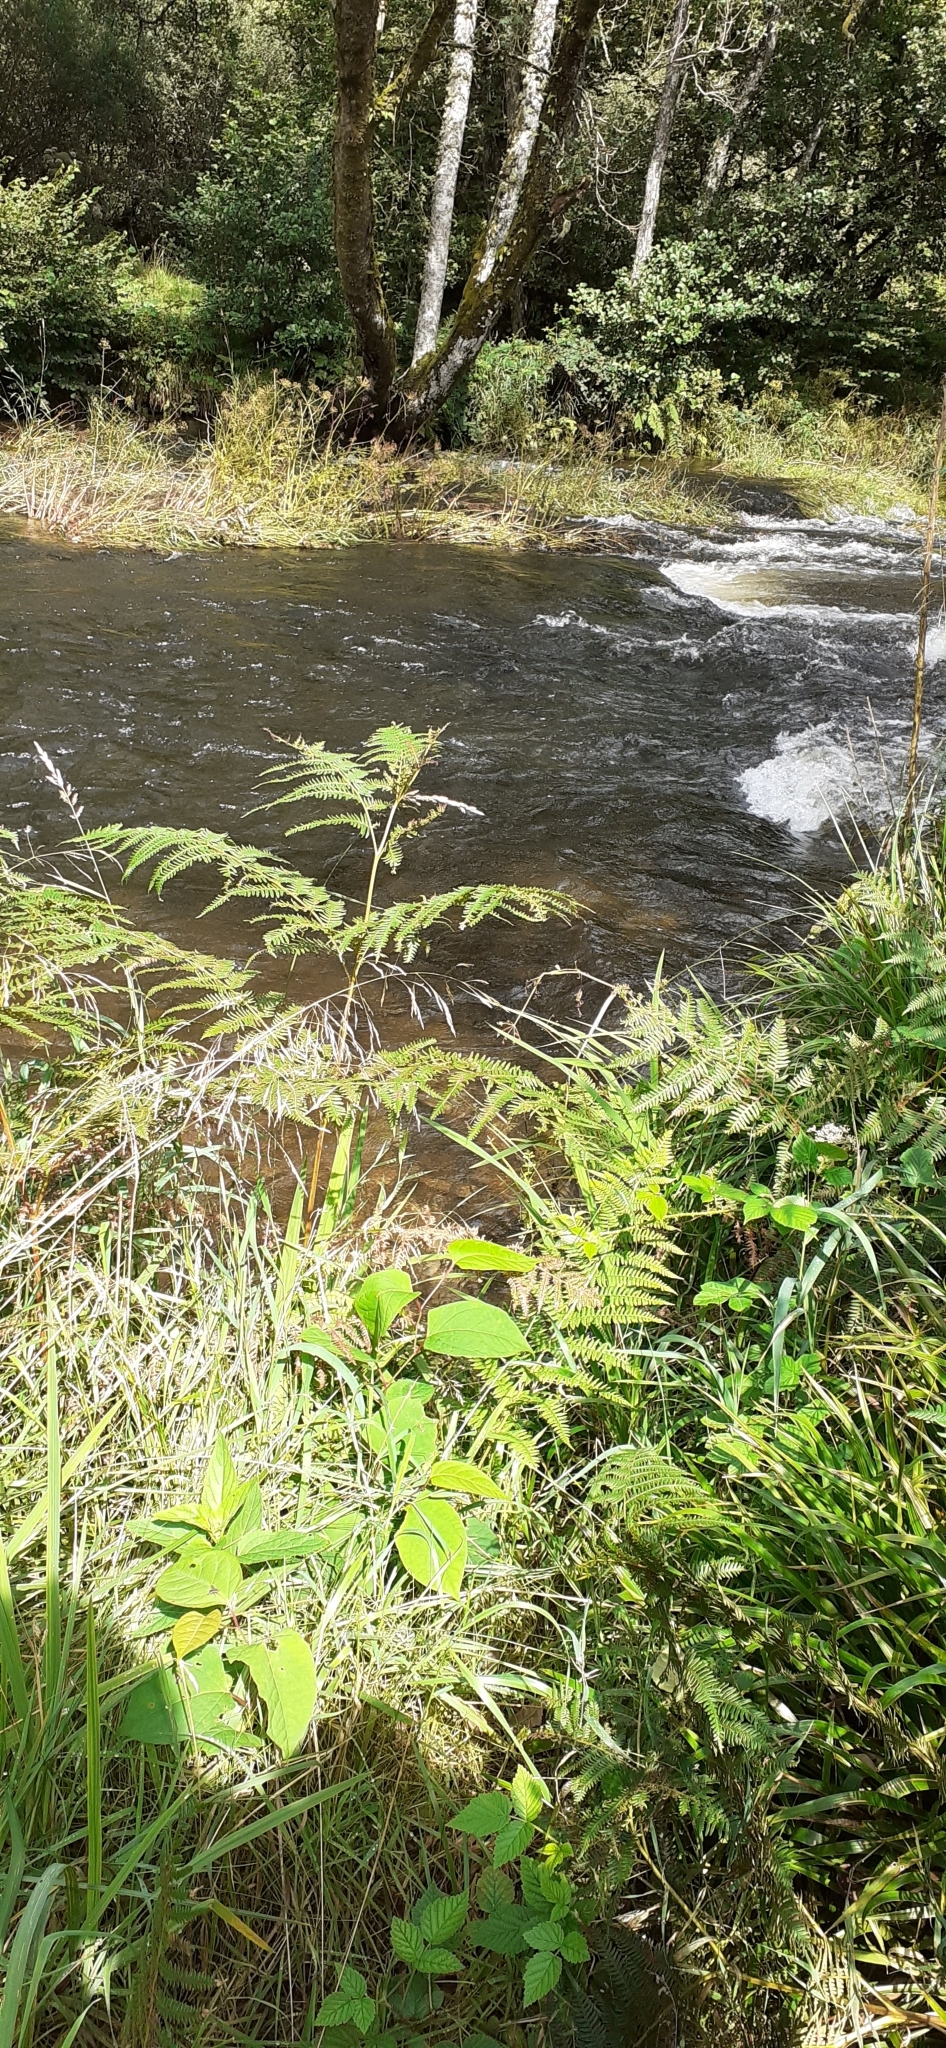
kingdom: Plantae
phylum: Tracheophyta
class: Magnoliopsida
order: Caryophyllales
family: Polygonaceae
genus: Reynoutria
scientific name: Reynoutria japonica
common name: Japanese knotweed
